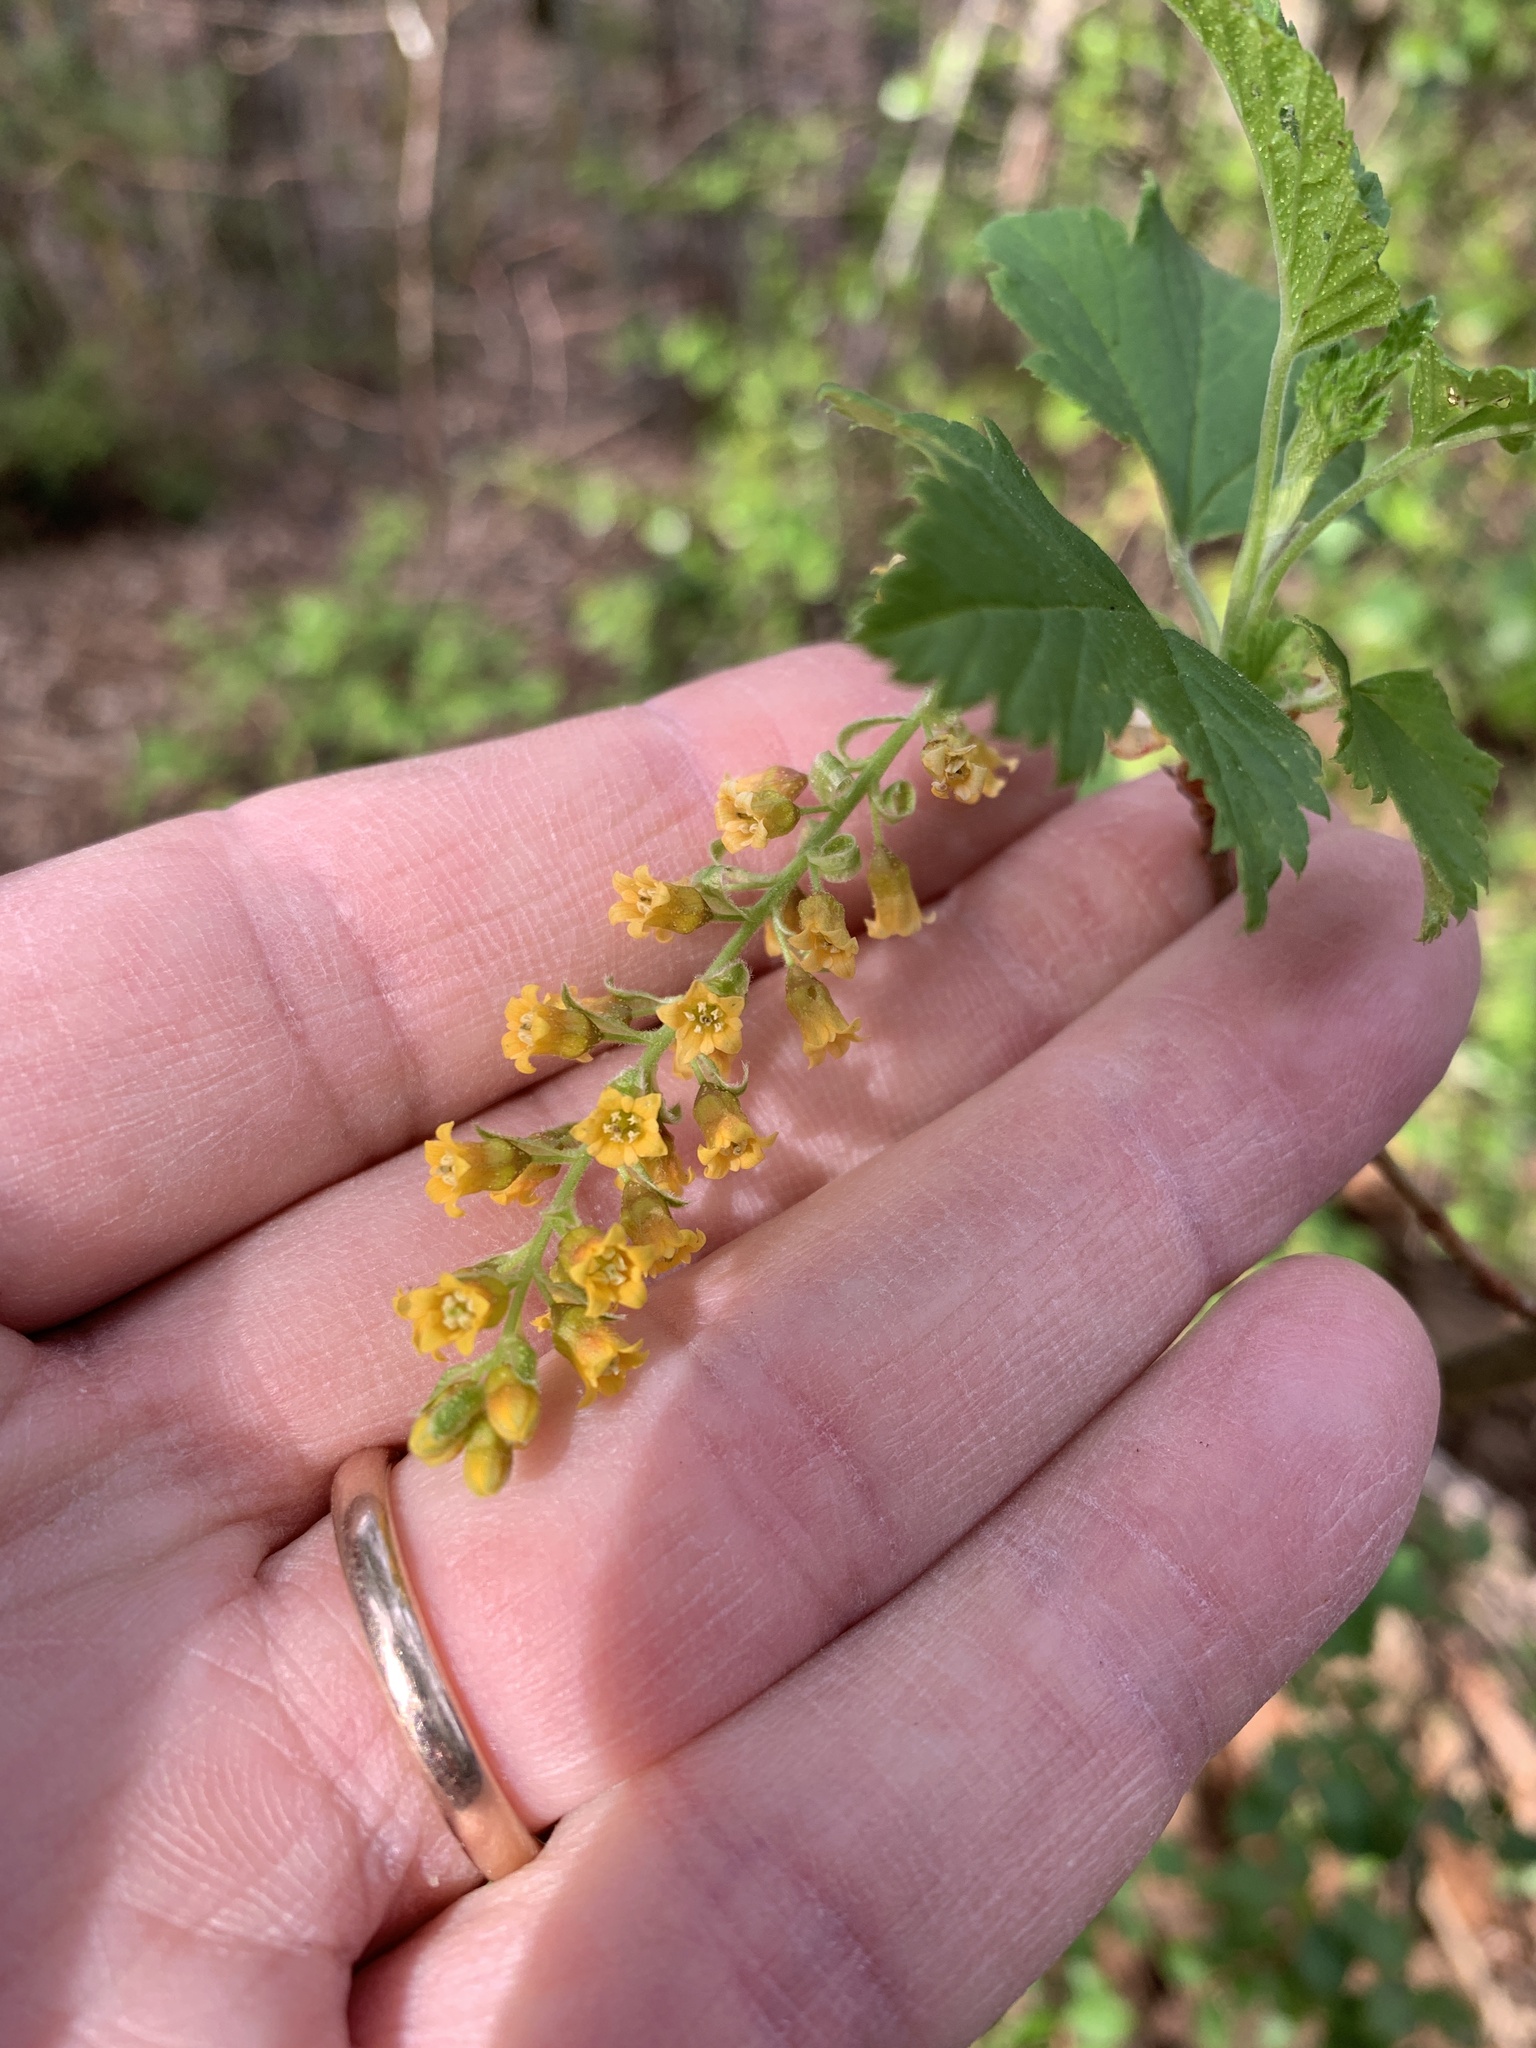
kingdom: Plantae
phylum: Tracheophyta
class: Magnoliopsida
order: Saxifragales
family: Grossulariaceae
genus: Ribes
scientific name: Ribes magellanicum
